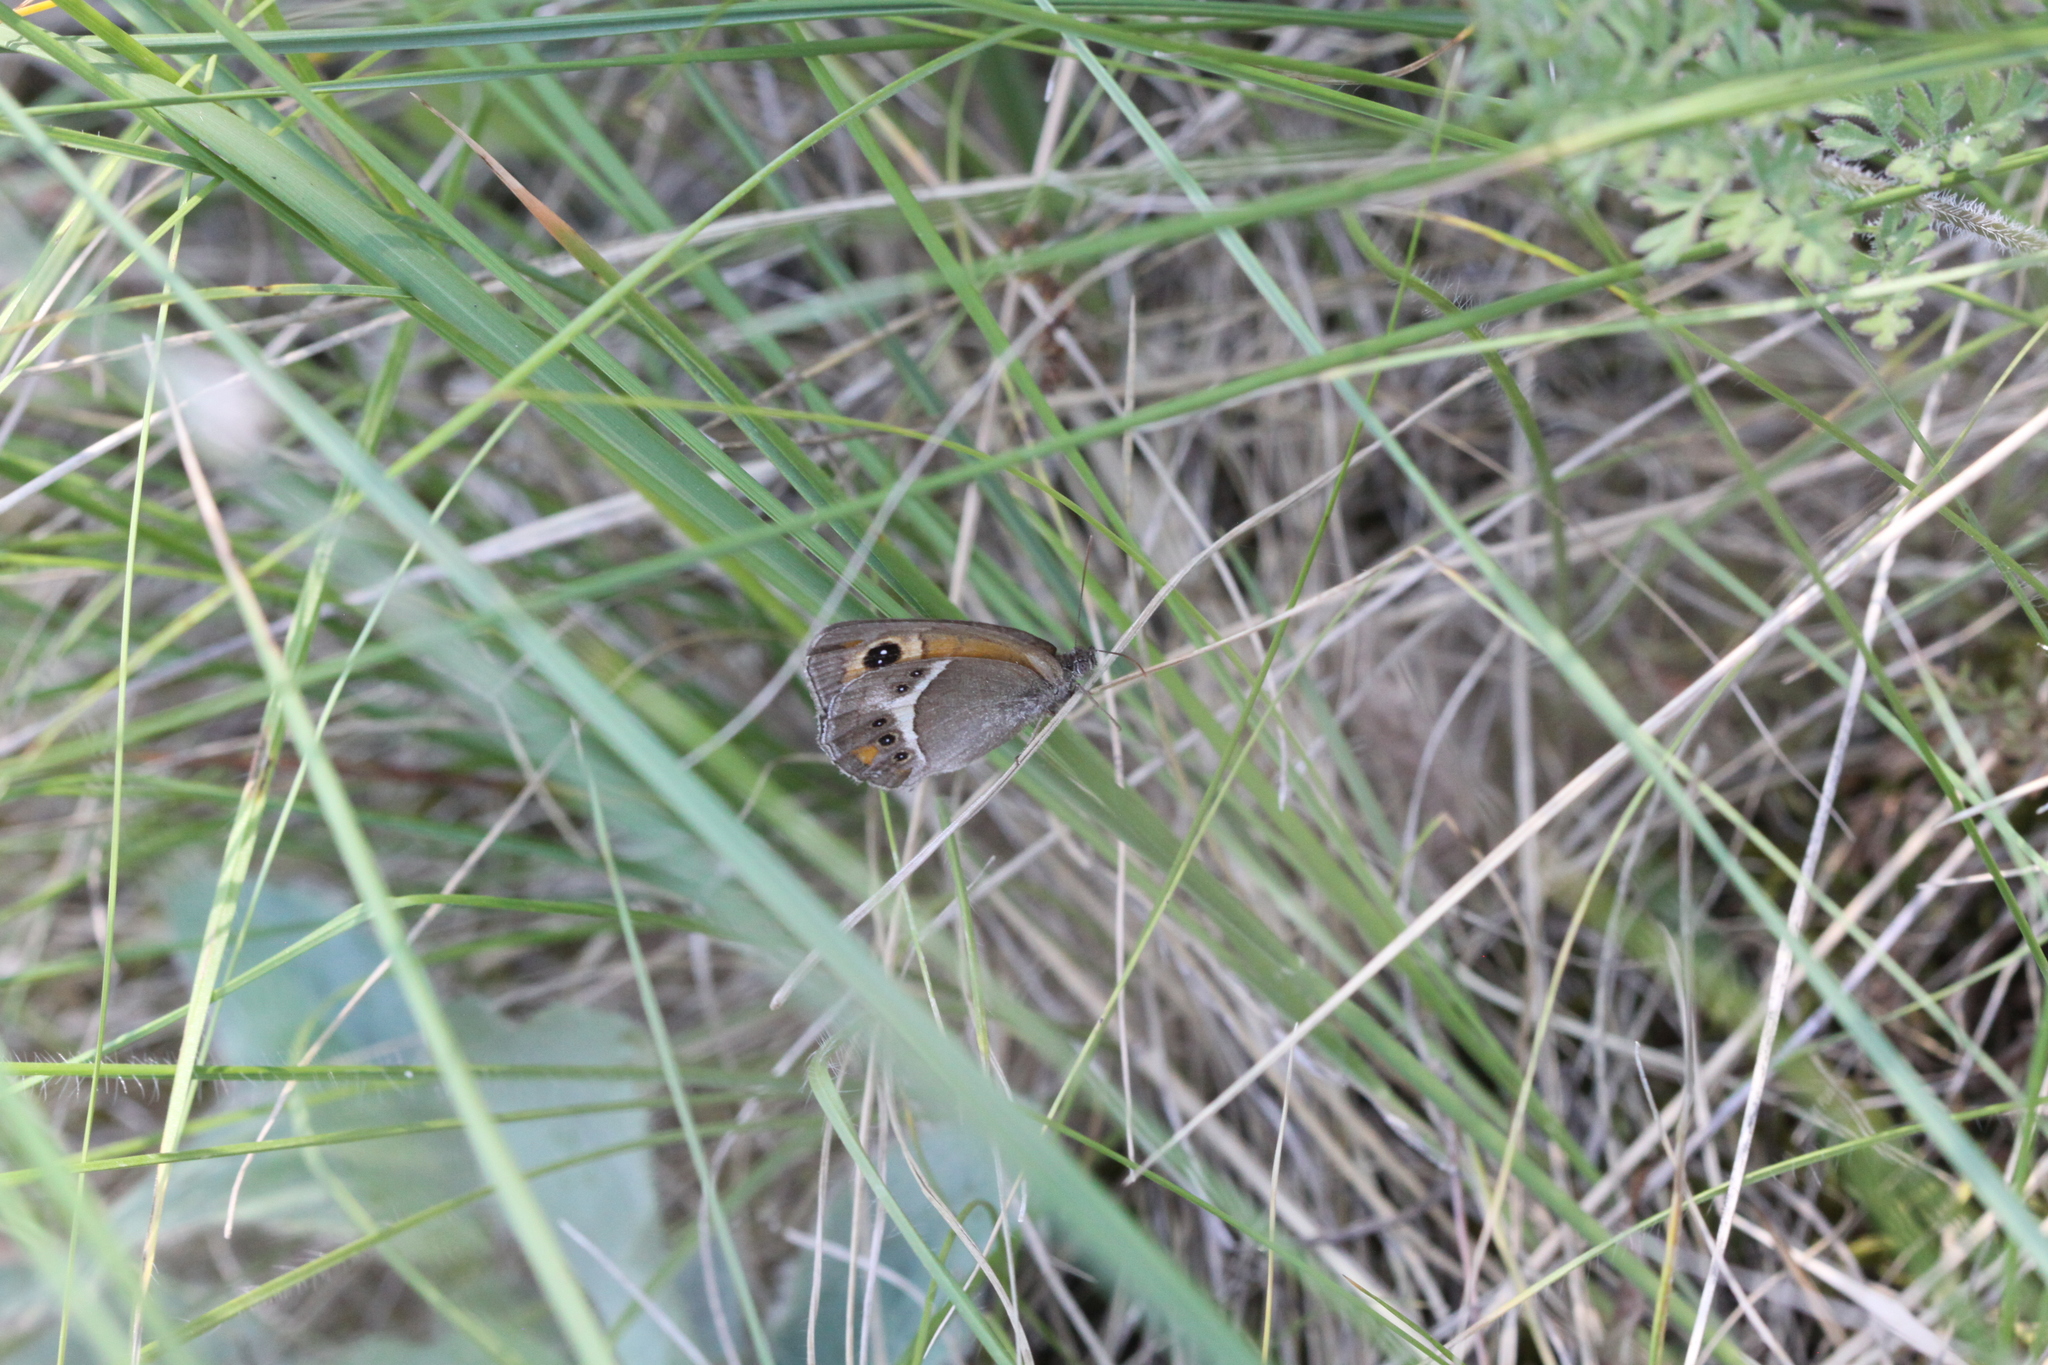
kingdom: Animalia
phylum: Arthropoda
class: Insecta
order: Lepidoptera
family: Nymphalidae
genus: Pyronia
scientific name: Pyronia bathseba
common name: Spanish gatekeeper
